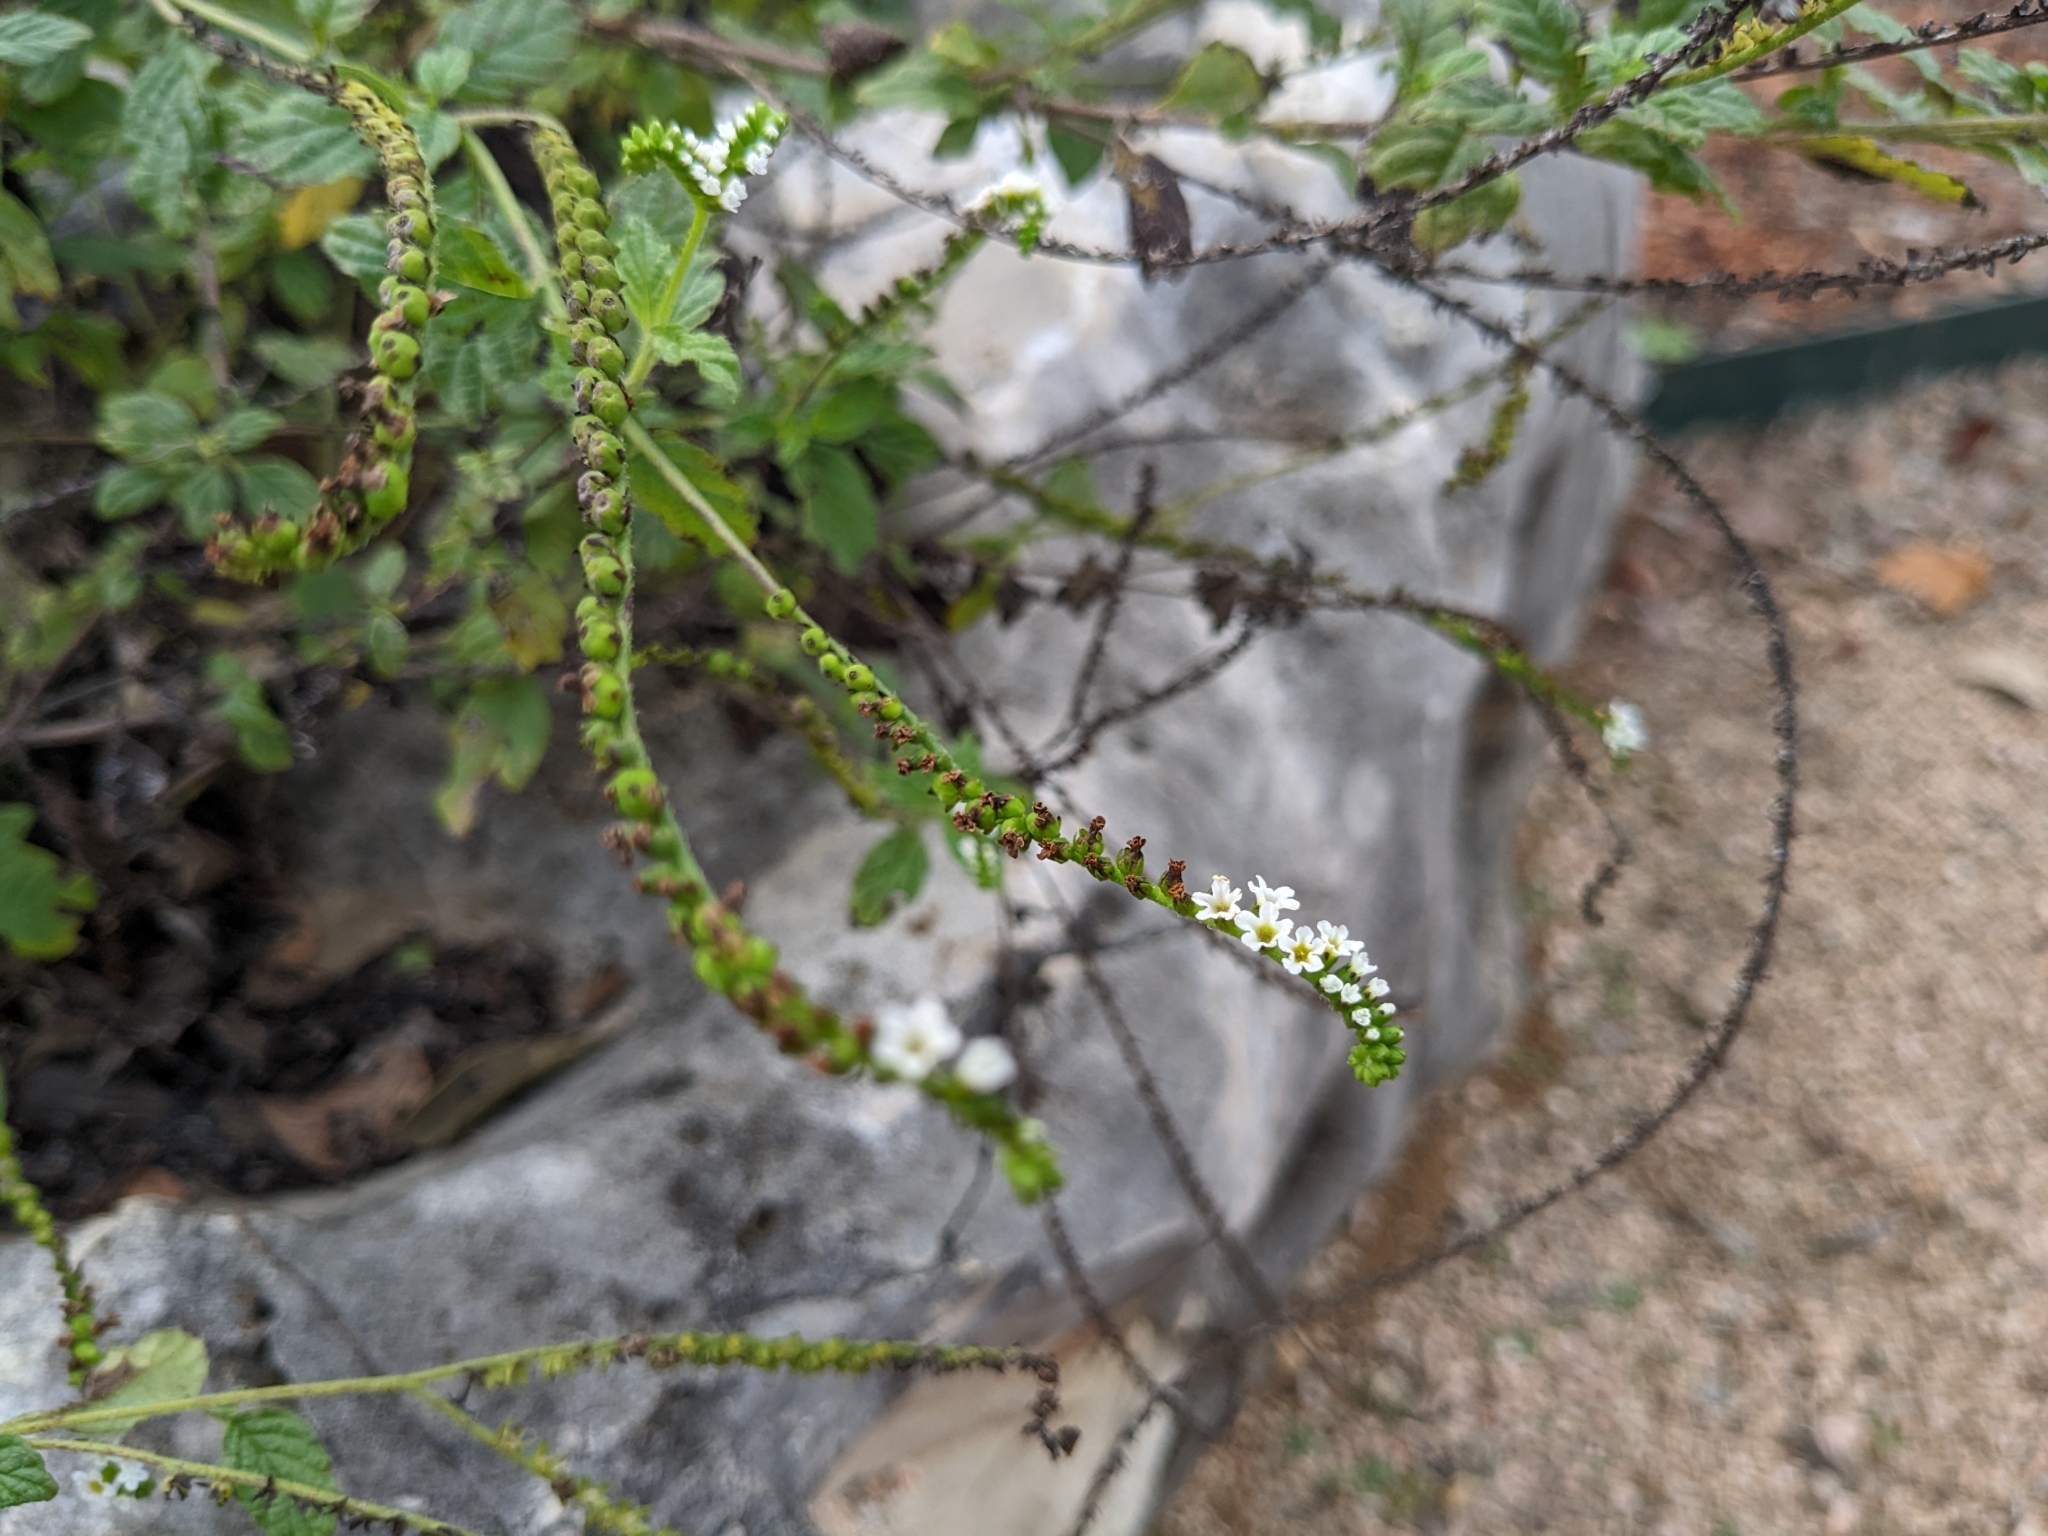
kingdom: Plantae
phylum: Tracheophyta
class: Magnoliopsida
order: Boraginales
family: Heliotropiaceae
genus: Heliotropium
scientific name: Heliotropium angiospermum
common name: Eye bright
